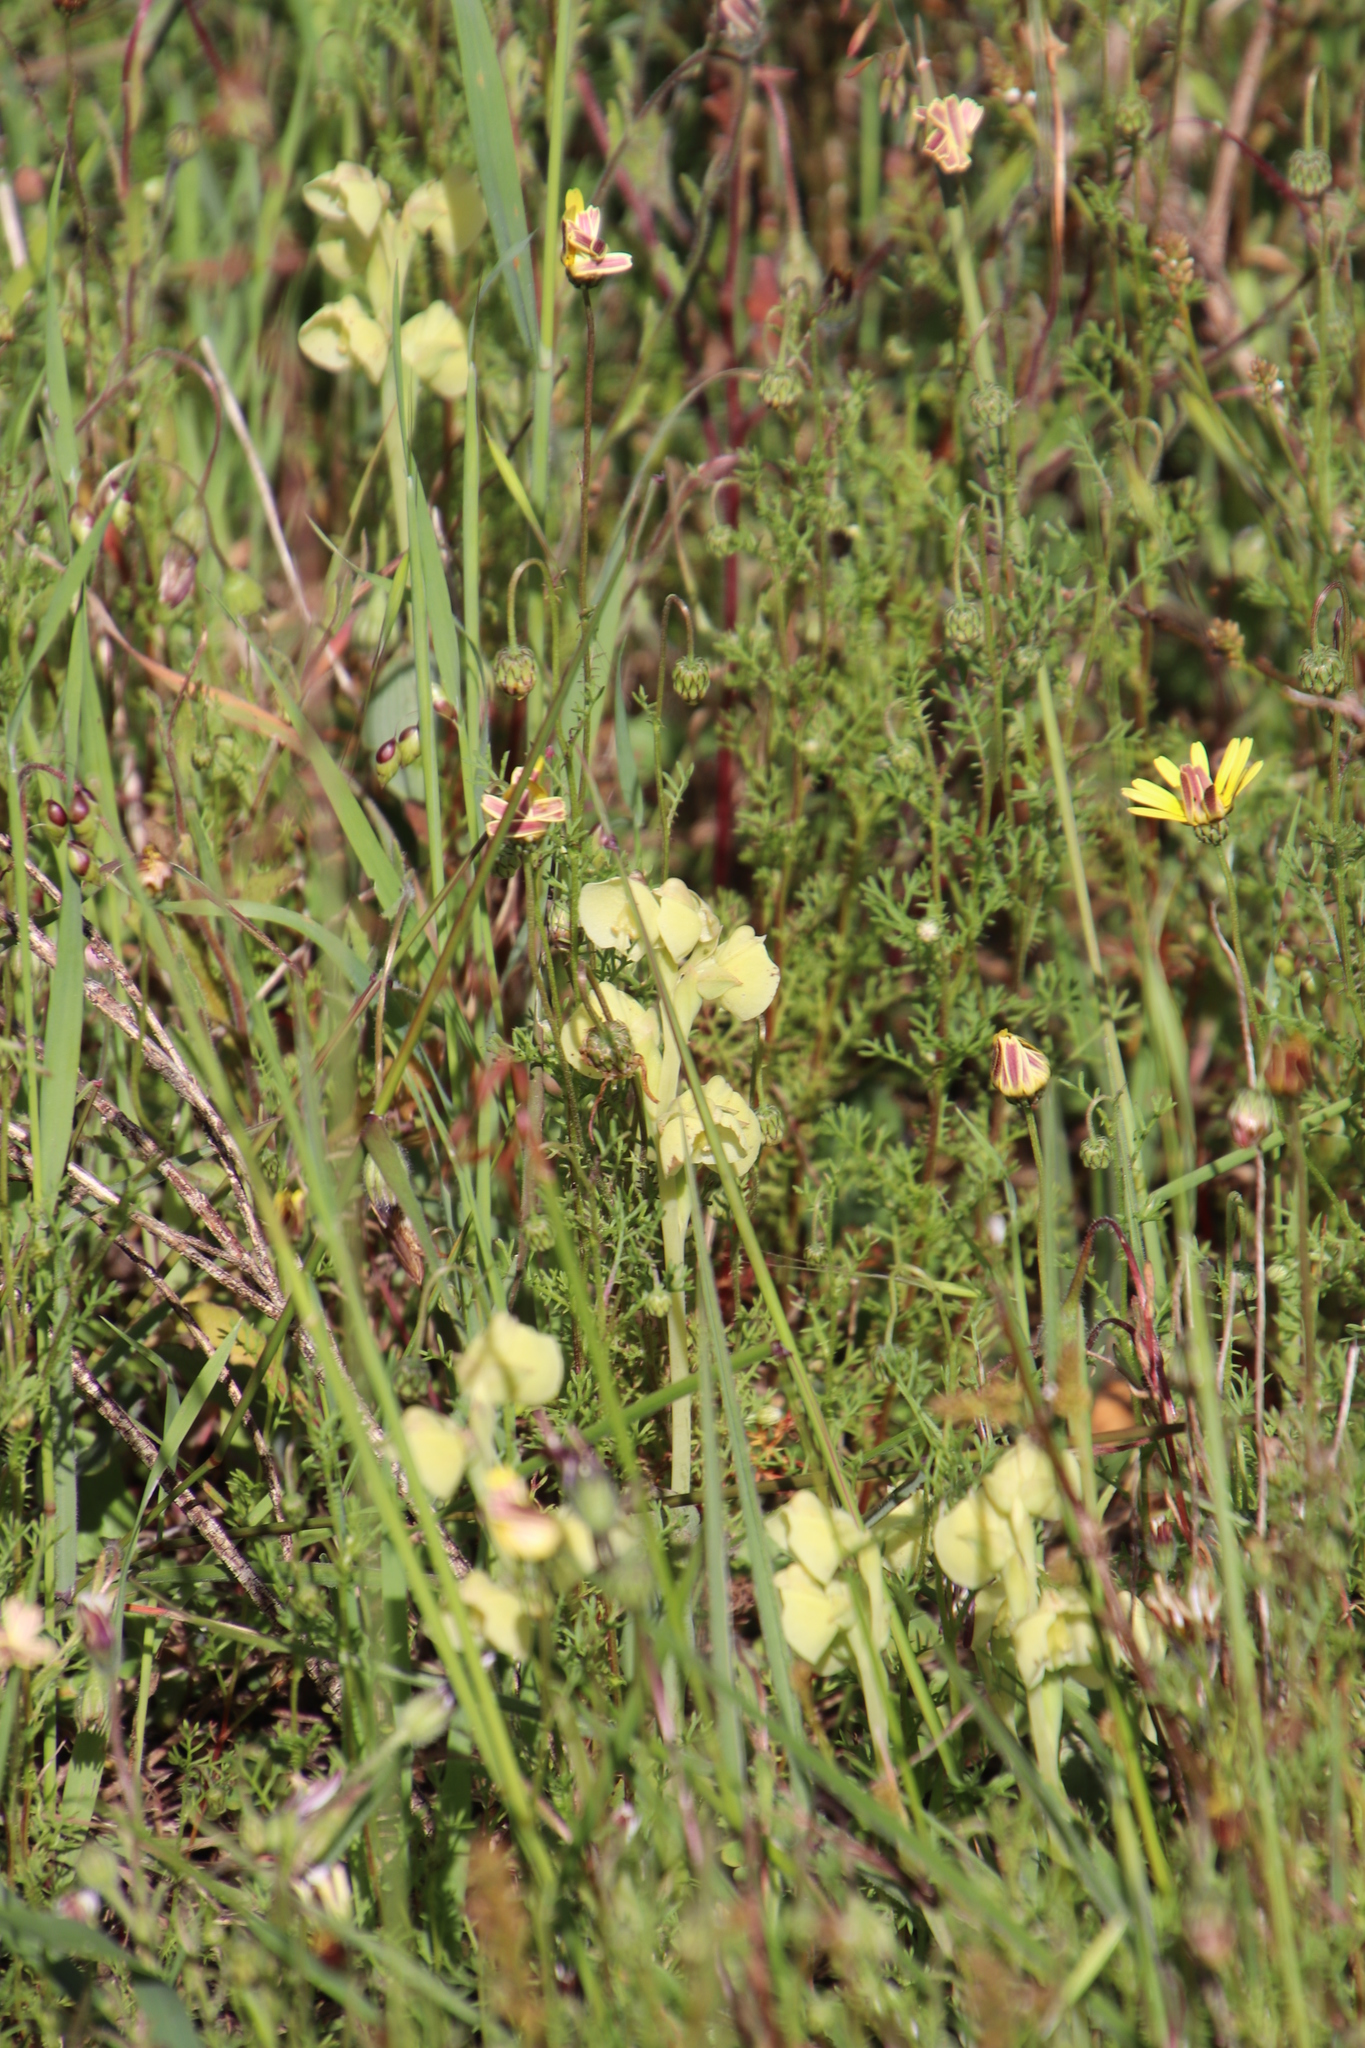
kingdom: Plantae
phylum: Tracheophyta
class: Liliopsida
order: Asparagales
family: Orchidaceae
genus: Pterygodium
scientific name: Pterygodium catholicum
